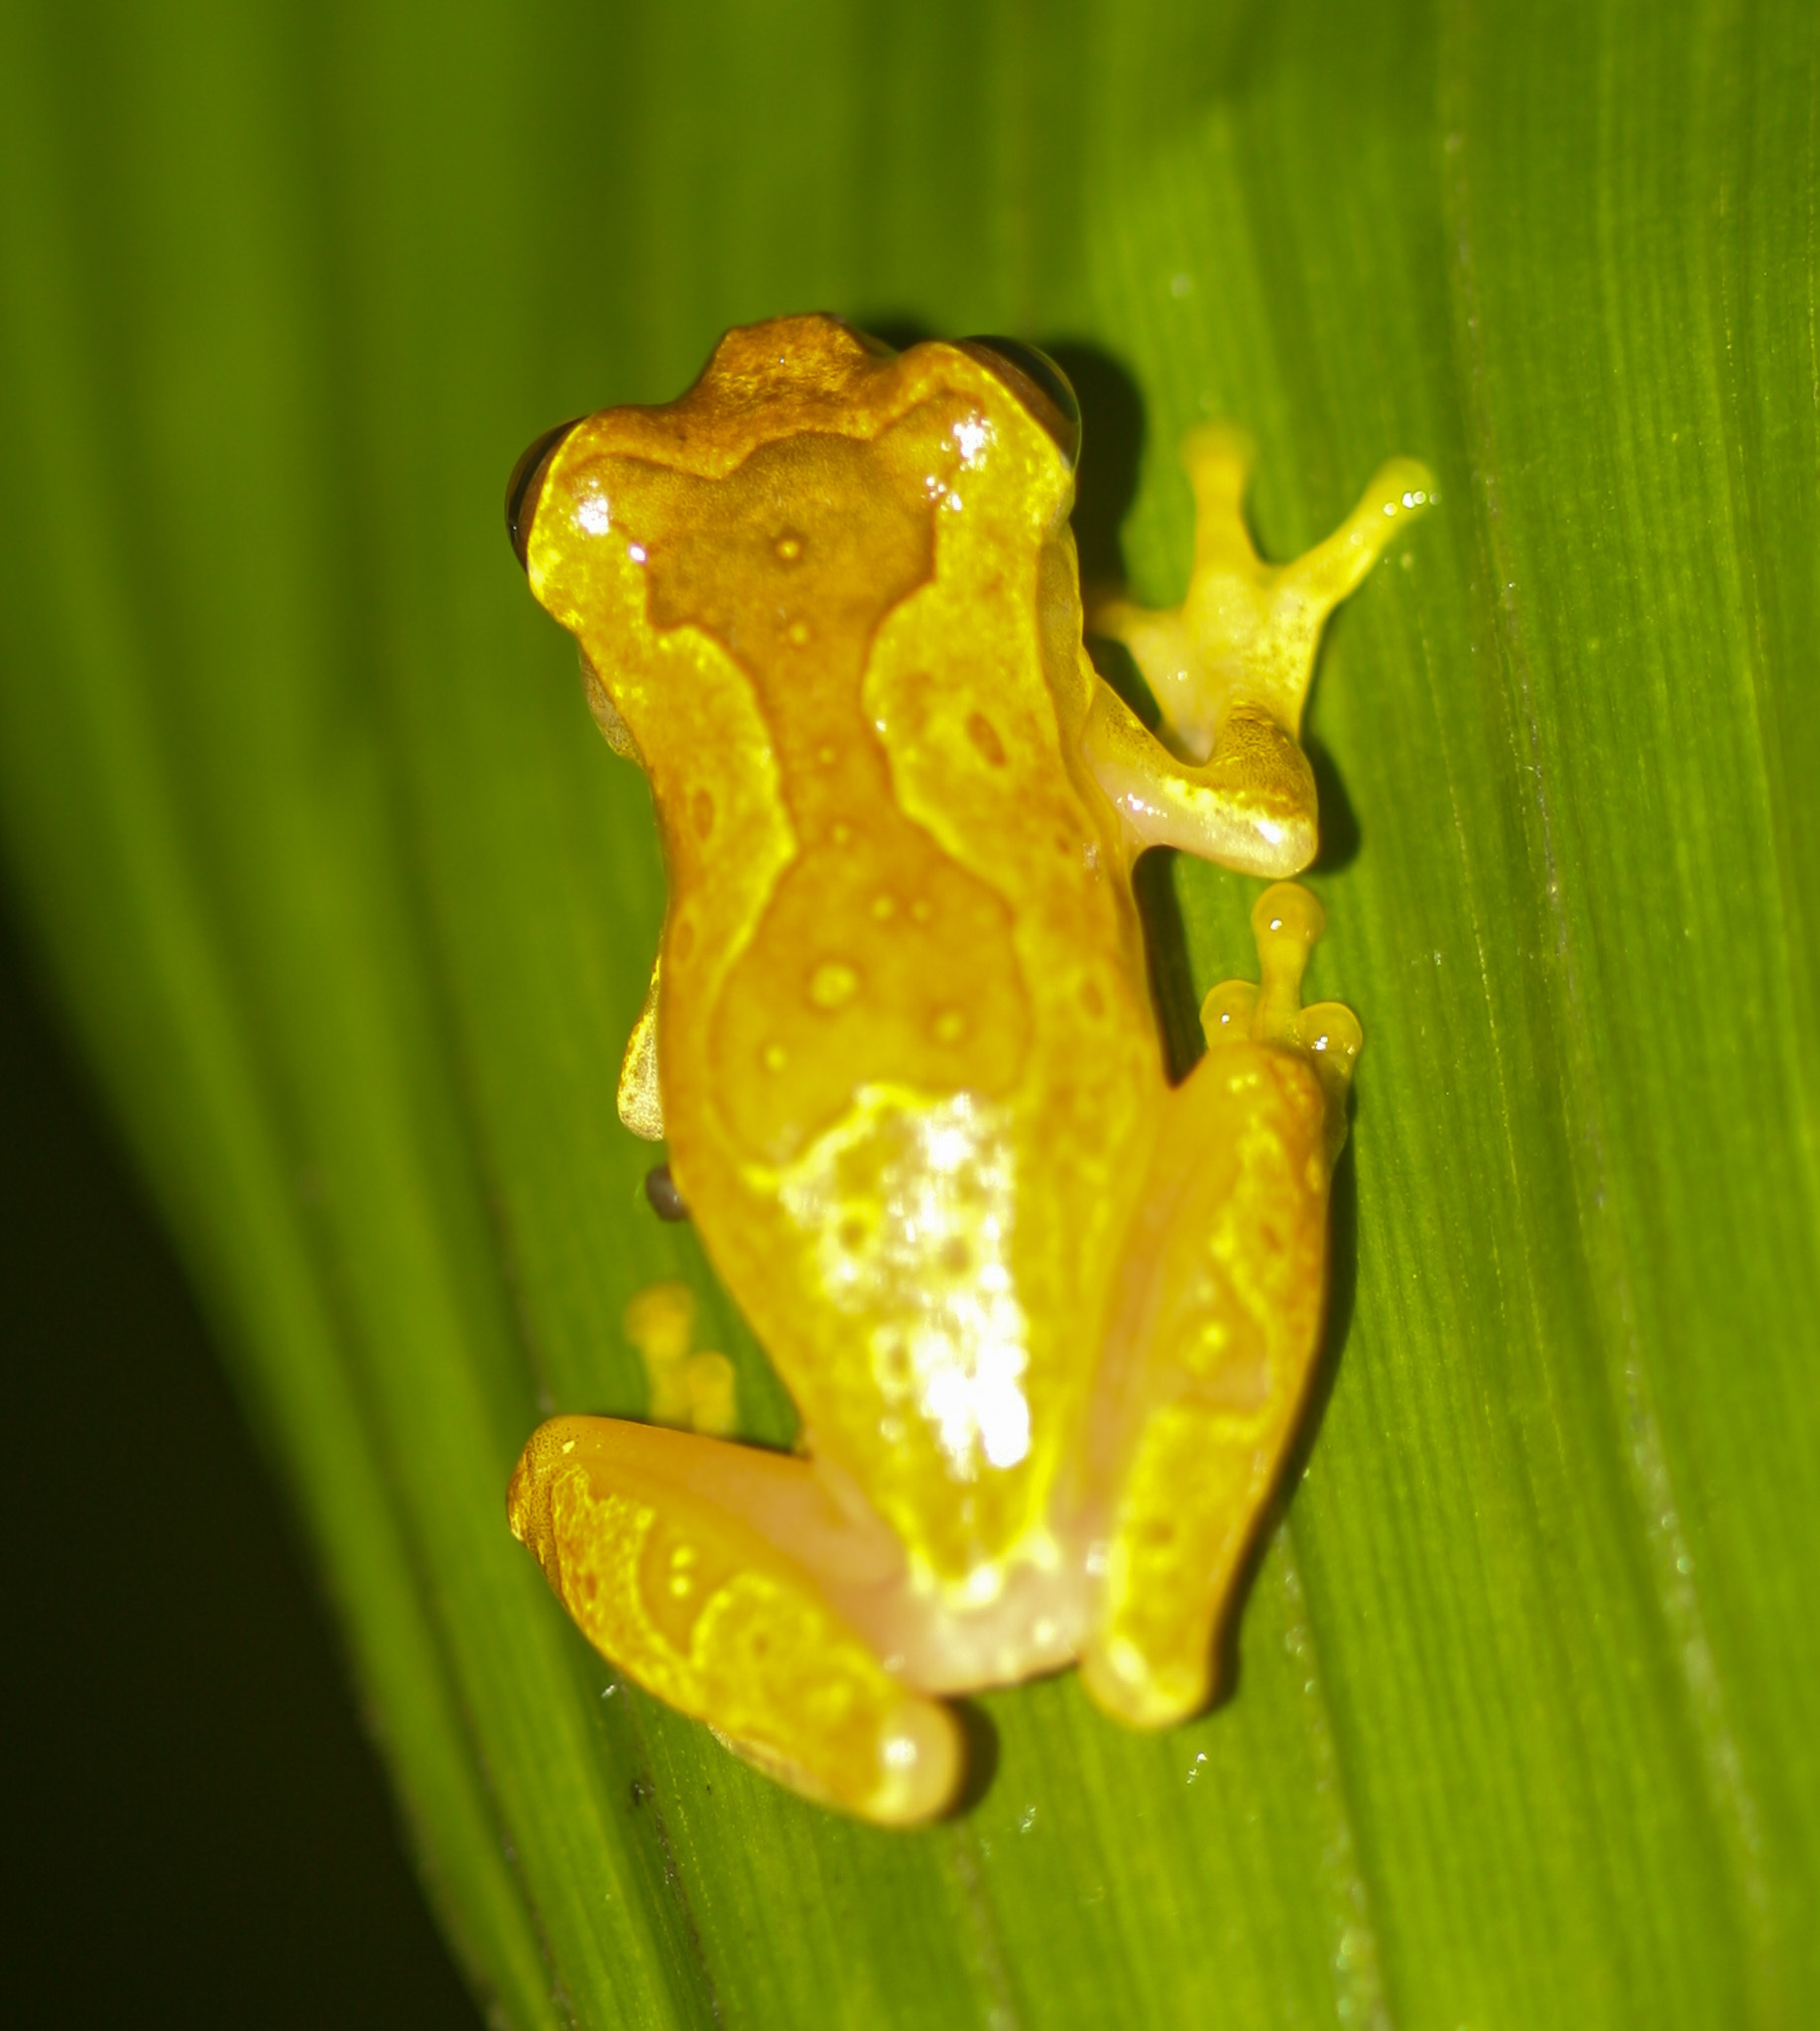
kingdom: Animalia
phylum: Chordata
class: Amphibia
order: Anura
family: Hylidae
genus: Dendropsophus
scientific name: Dendropsophus ebraccatus
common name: Hourglass treefrog
